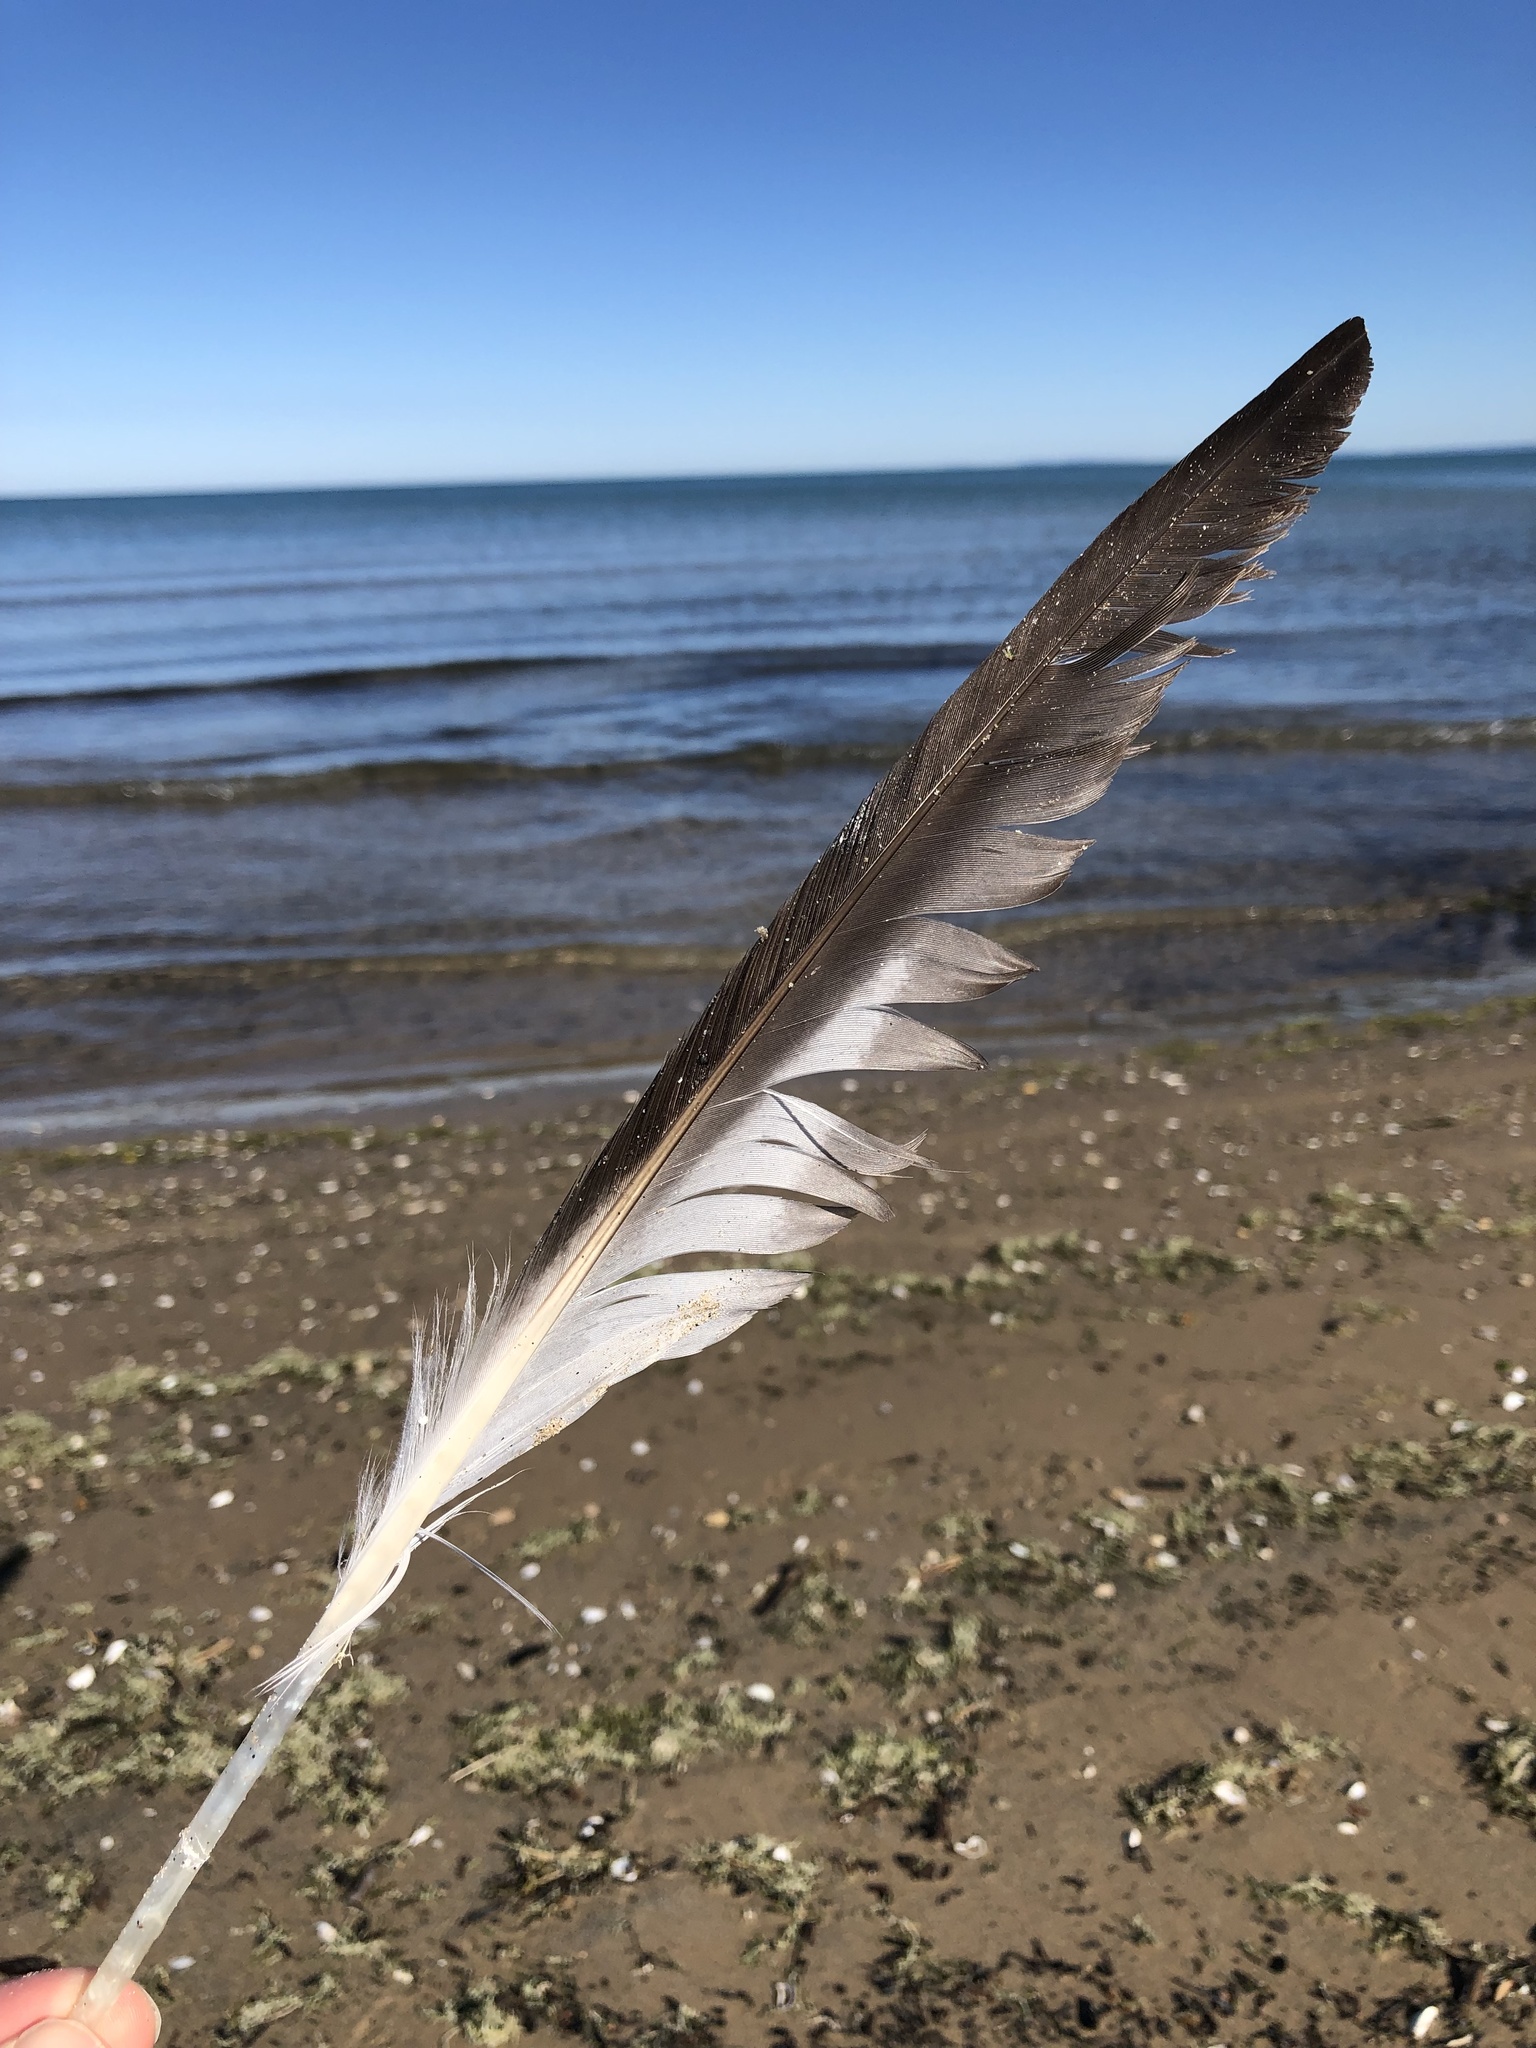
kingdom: Animalia
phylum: Chordata
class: Aves
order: Charadriiformes
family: Laridae
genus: Larus
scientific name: Larus argentatus
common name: Herring gull
